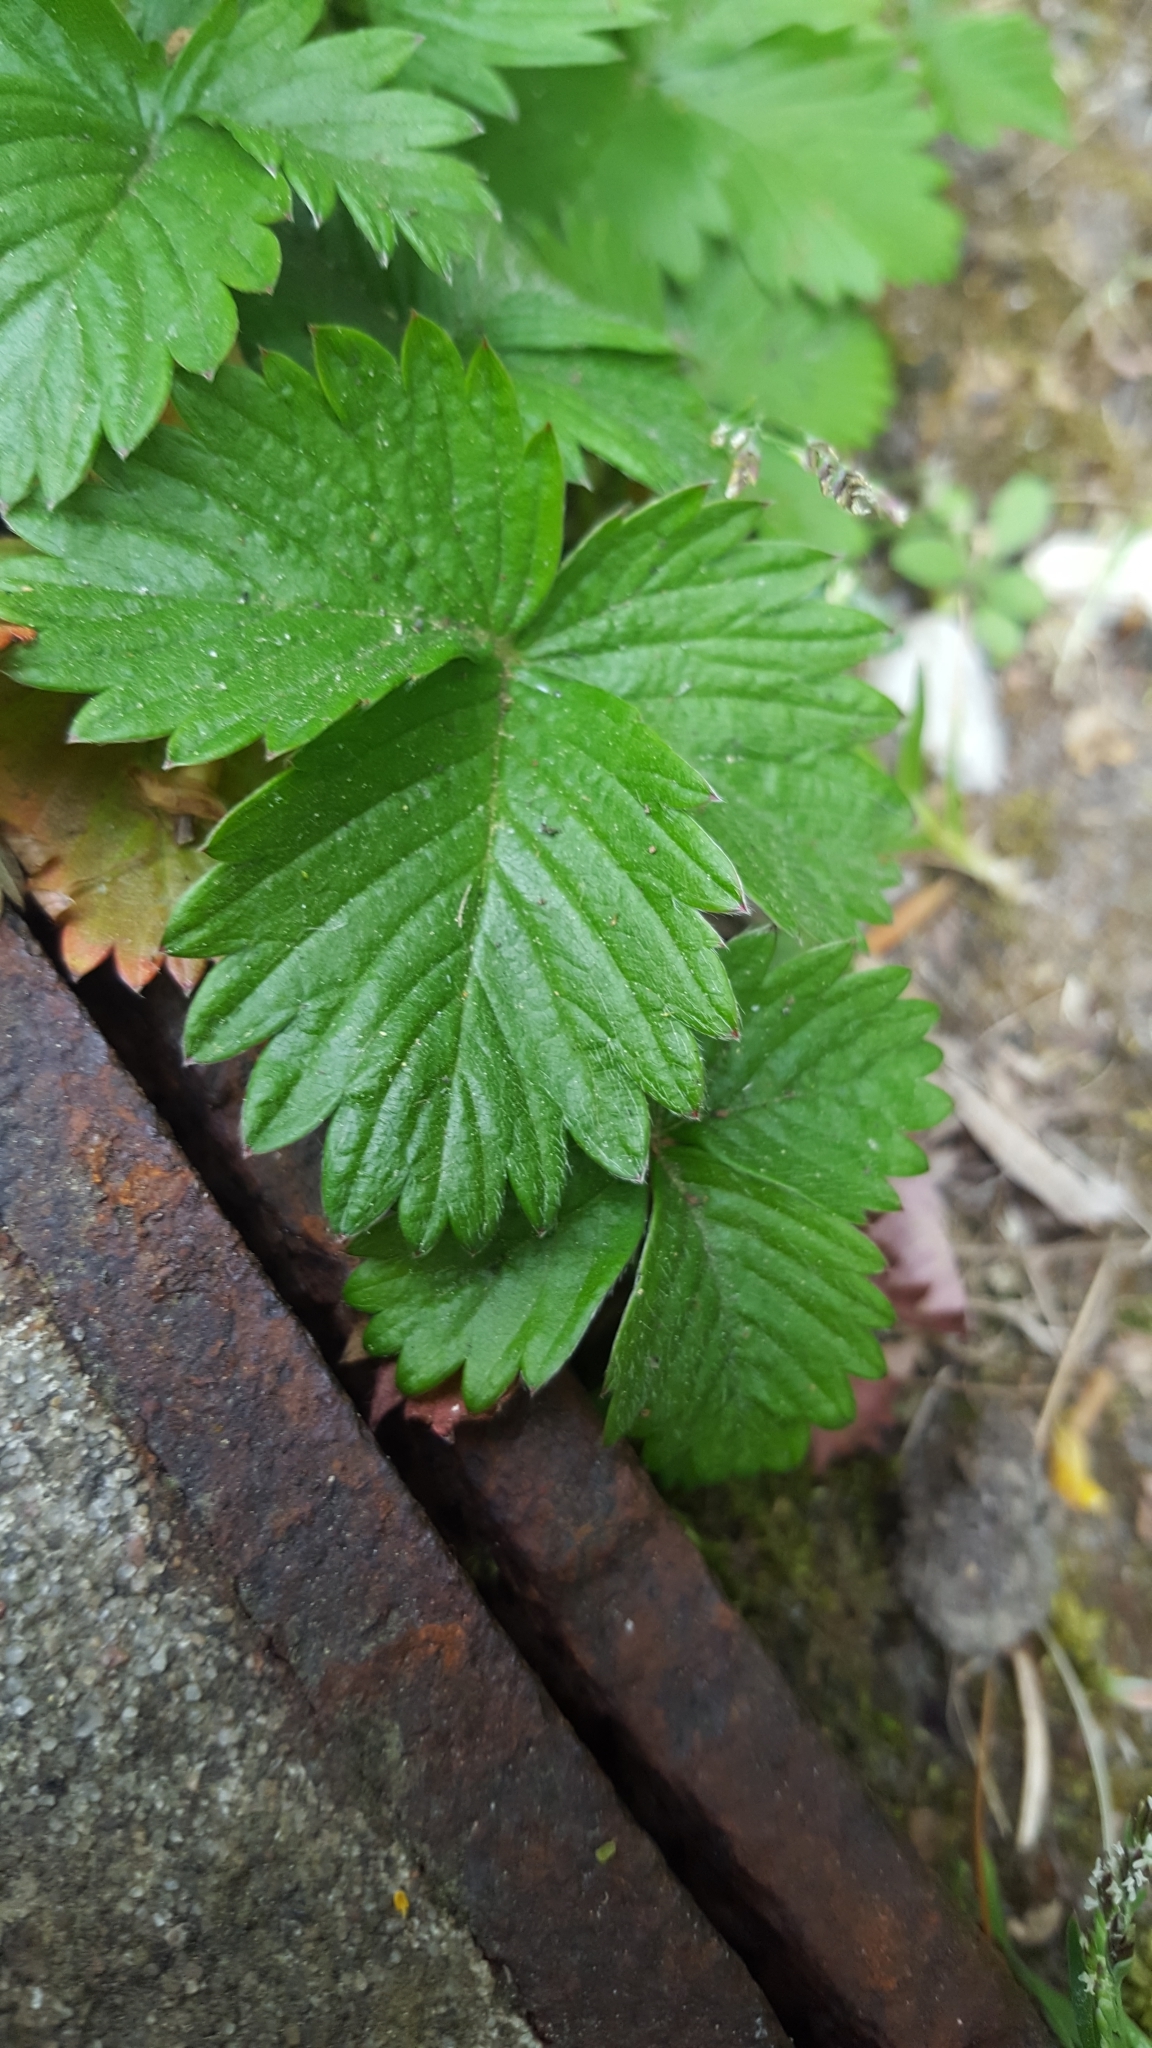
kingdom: Plantae
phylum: Tracheophyta
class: Magnoliopsida
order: Rosales
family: Rosaceae
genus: Fragaria
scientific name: Fragaria vesca
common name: Wild strawberry
